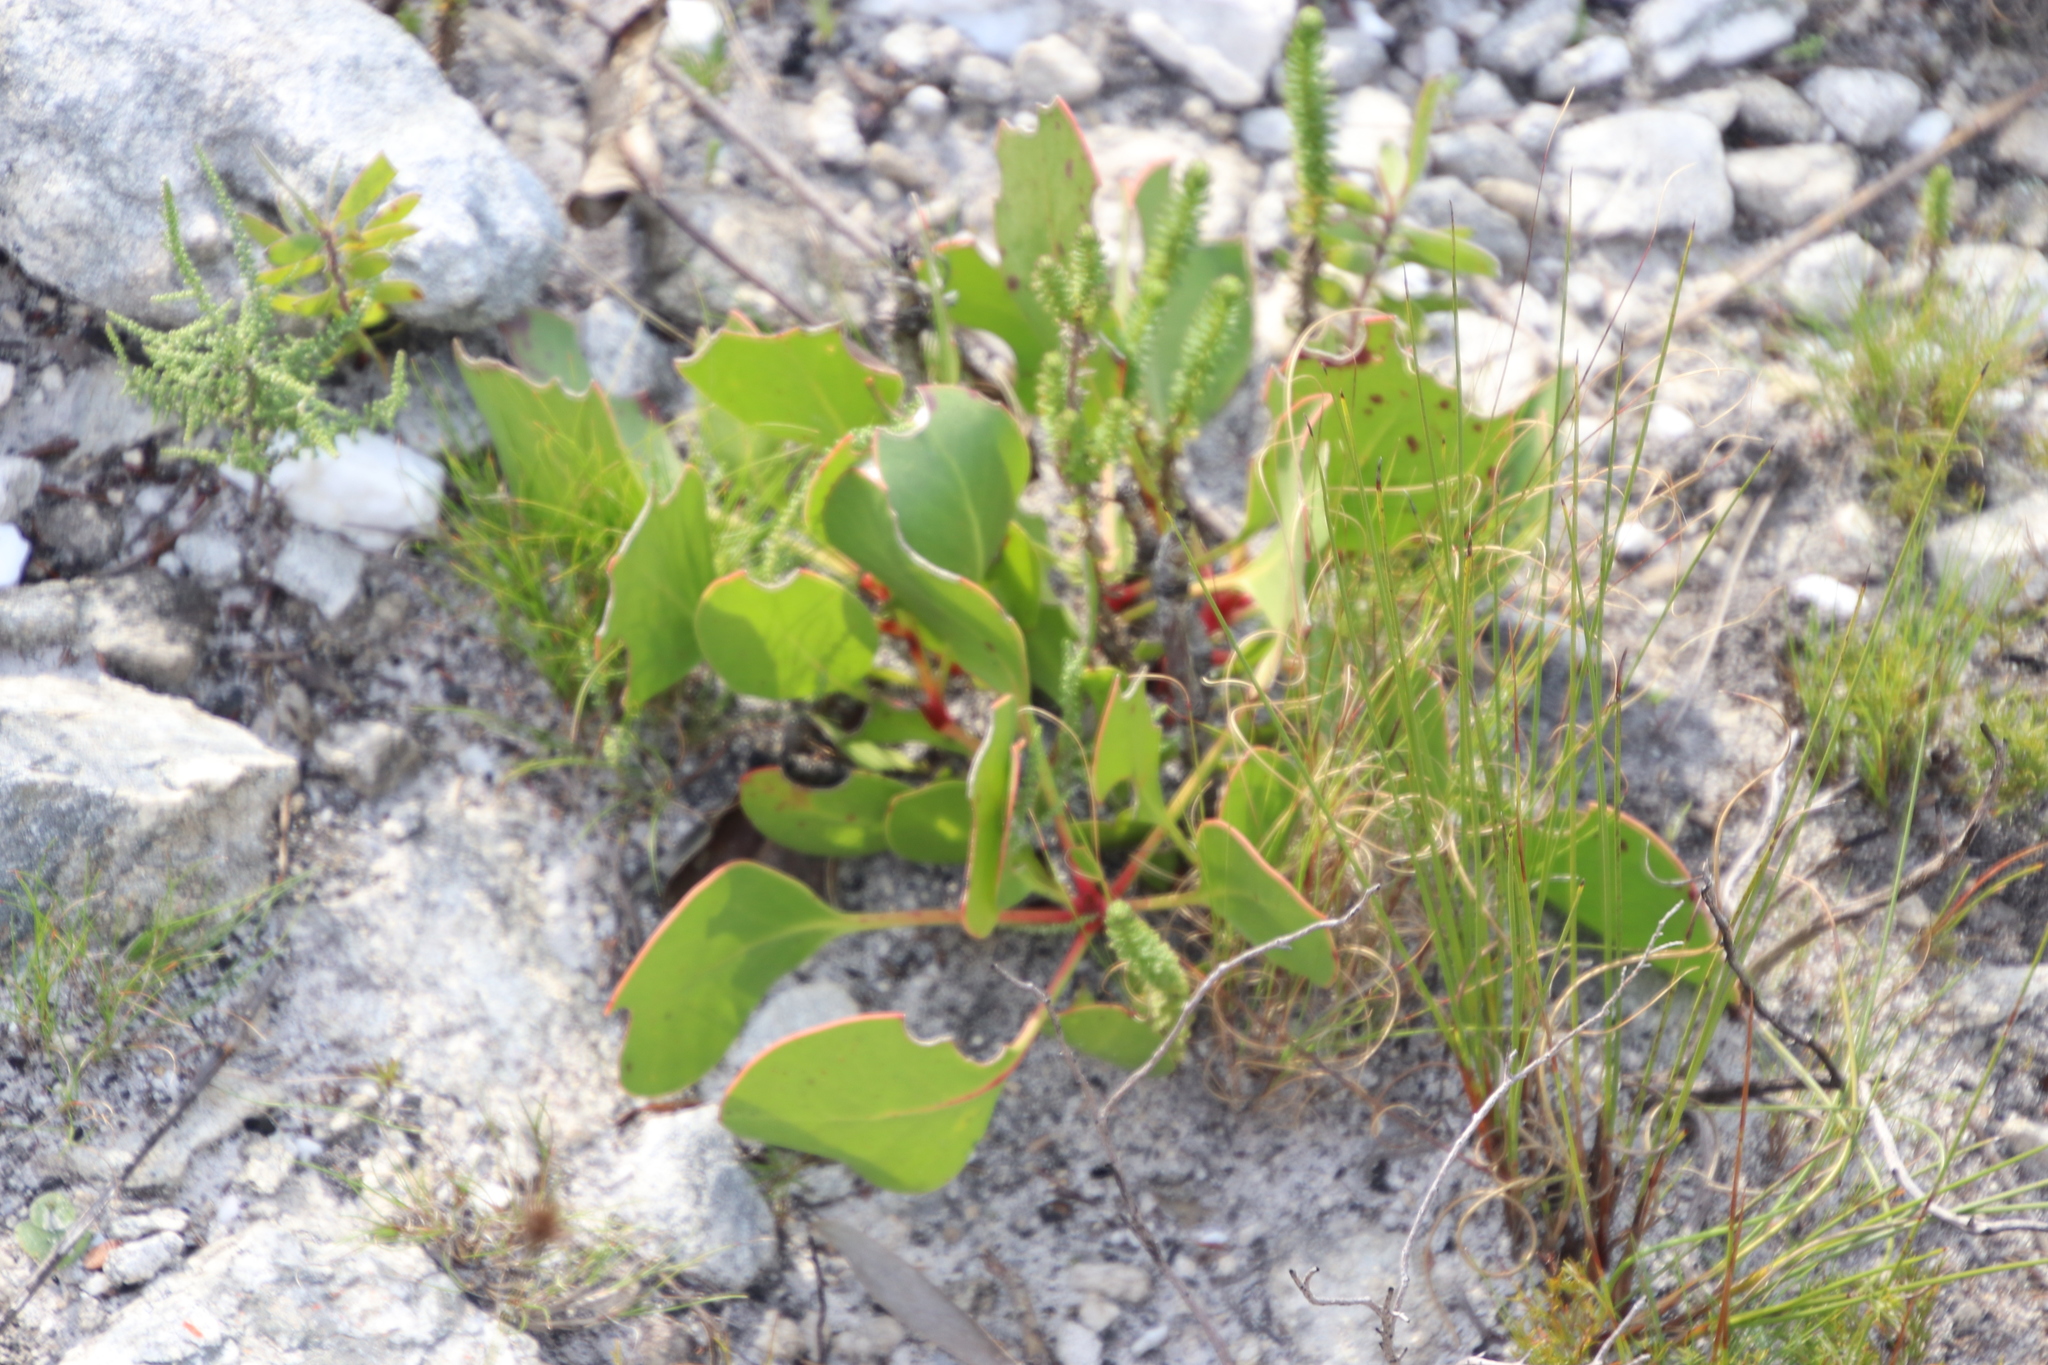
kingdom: Plantae
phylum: Tracheophyta
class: Magnoliopsida
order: Proteales
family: Proteaceae
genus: Protea
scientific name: Protea cynaroides
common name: King protea
